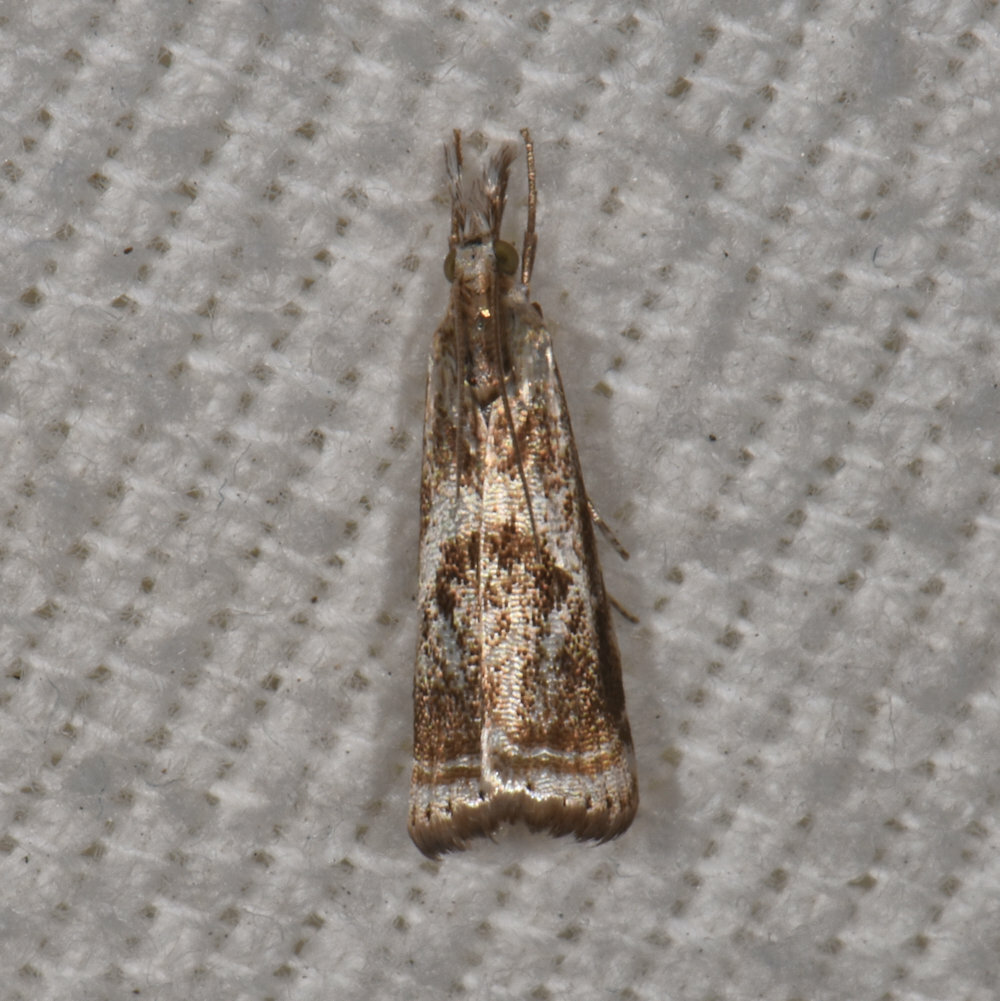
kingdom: Animalia
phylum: Arthropoda
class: Insecta
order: Lepidoptera
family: Crambidae
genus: Microcrambus
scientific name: Microcrambus elegans
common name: Elegant grass-veneer
